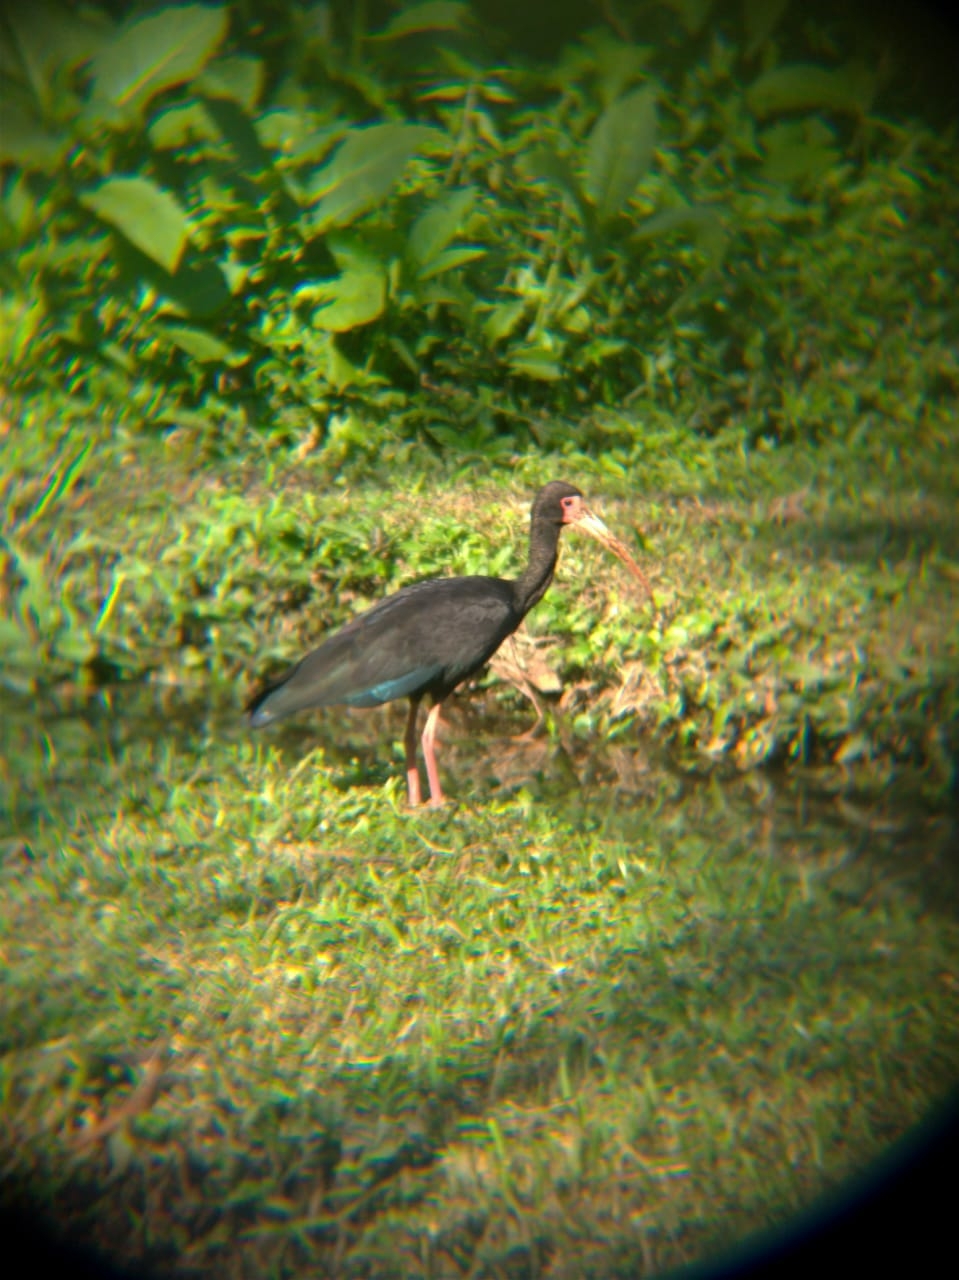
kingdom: Animalia
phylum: Chordata
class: Aves
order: Pelecaniformes
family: Threskiornithidae
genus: Phimosus
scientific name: Phimosus infuscatus
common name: Bare-faced ibis
